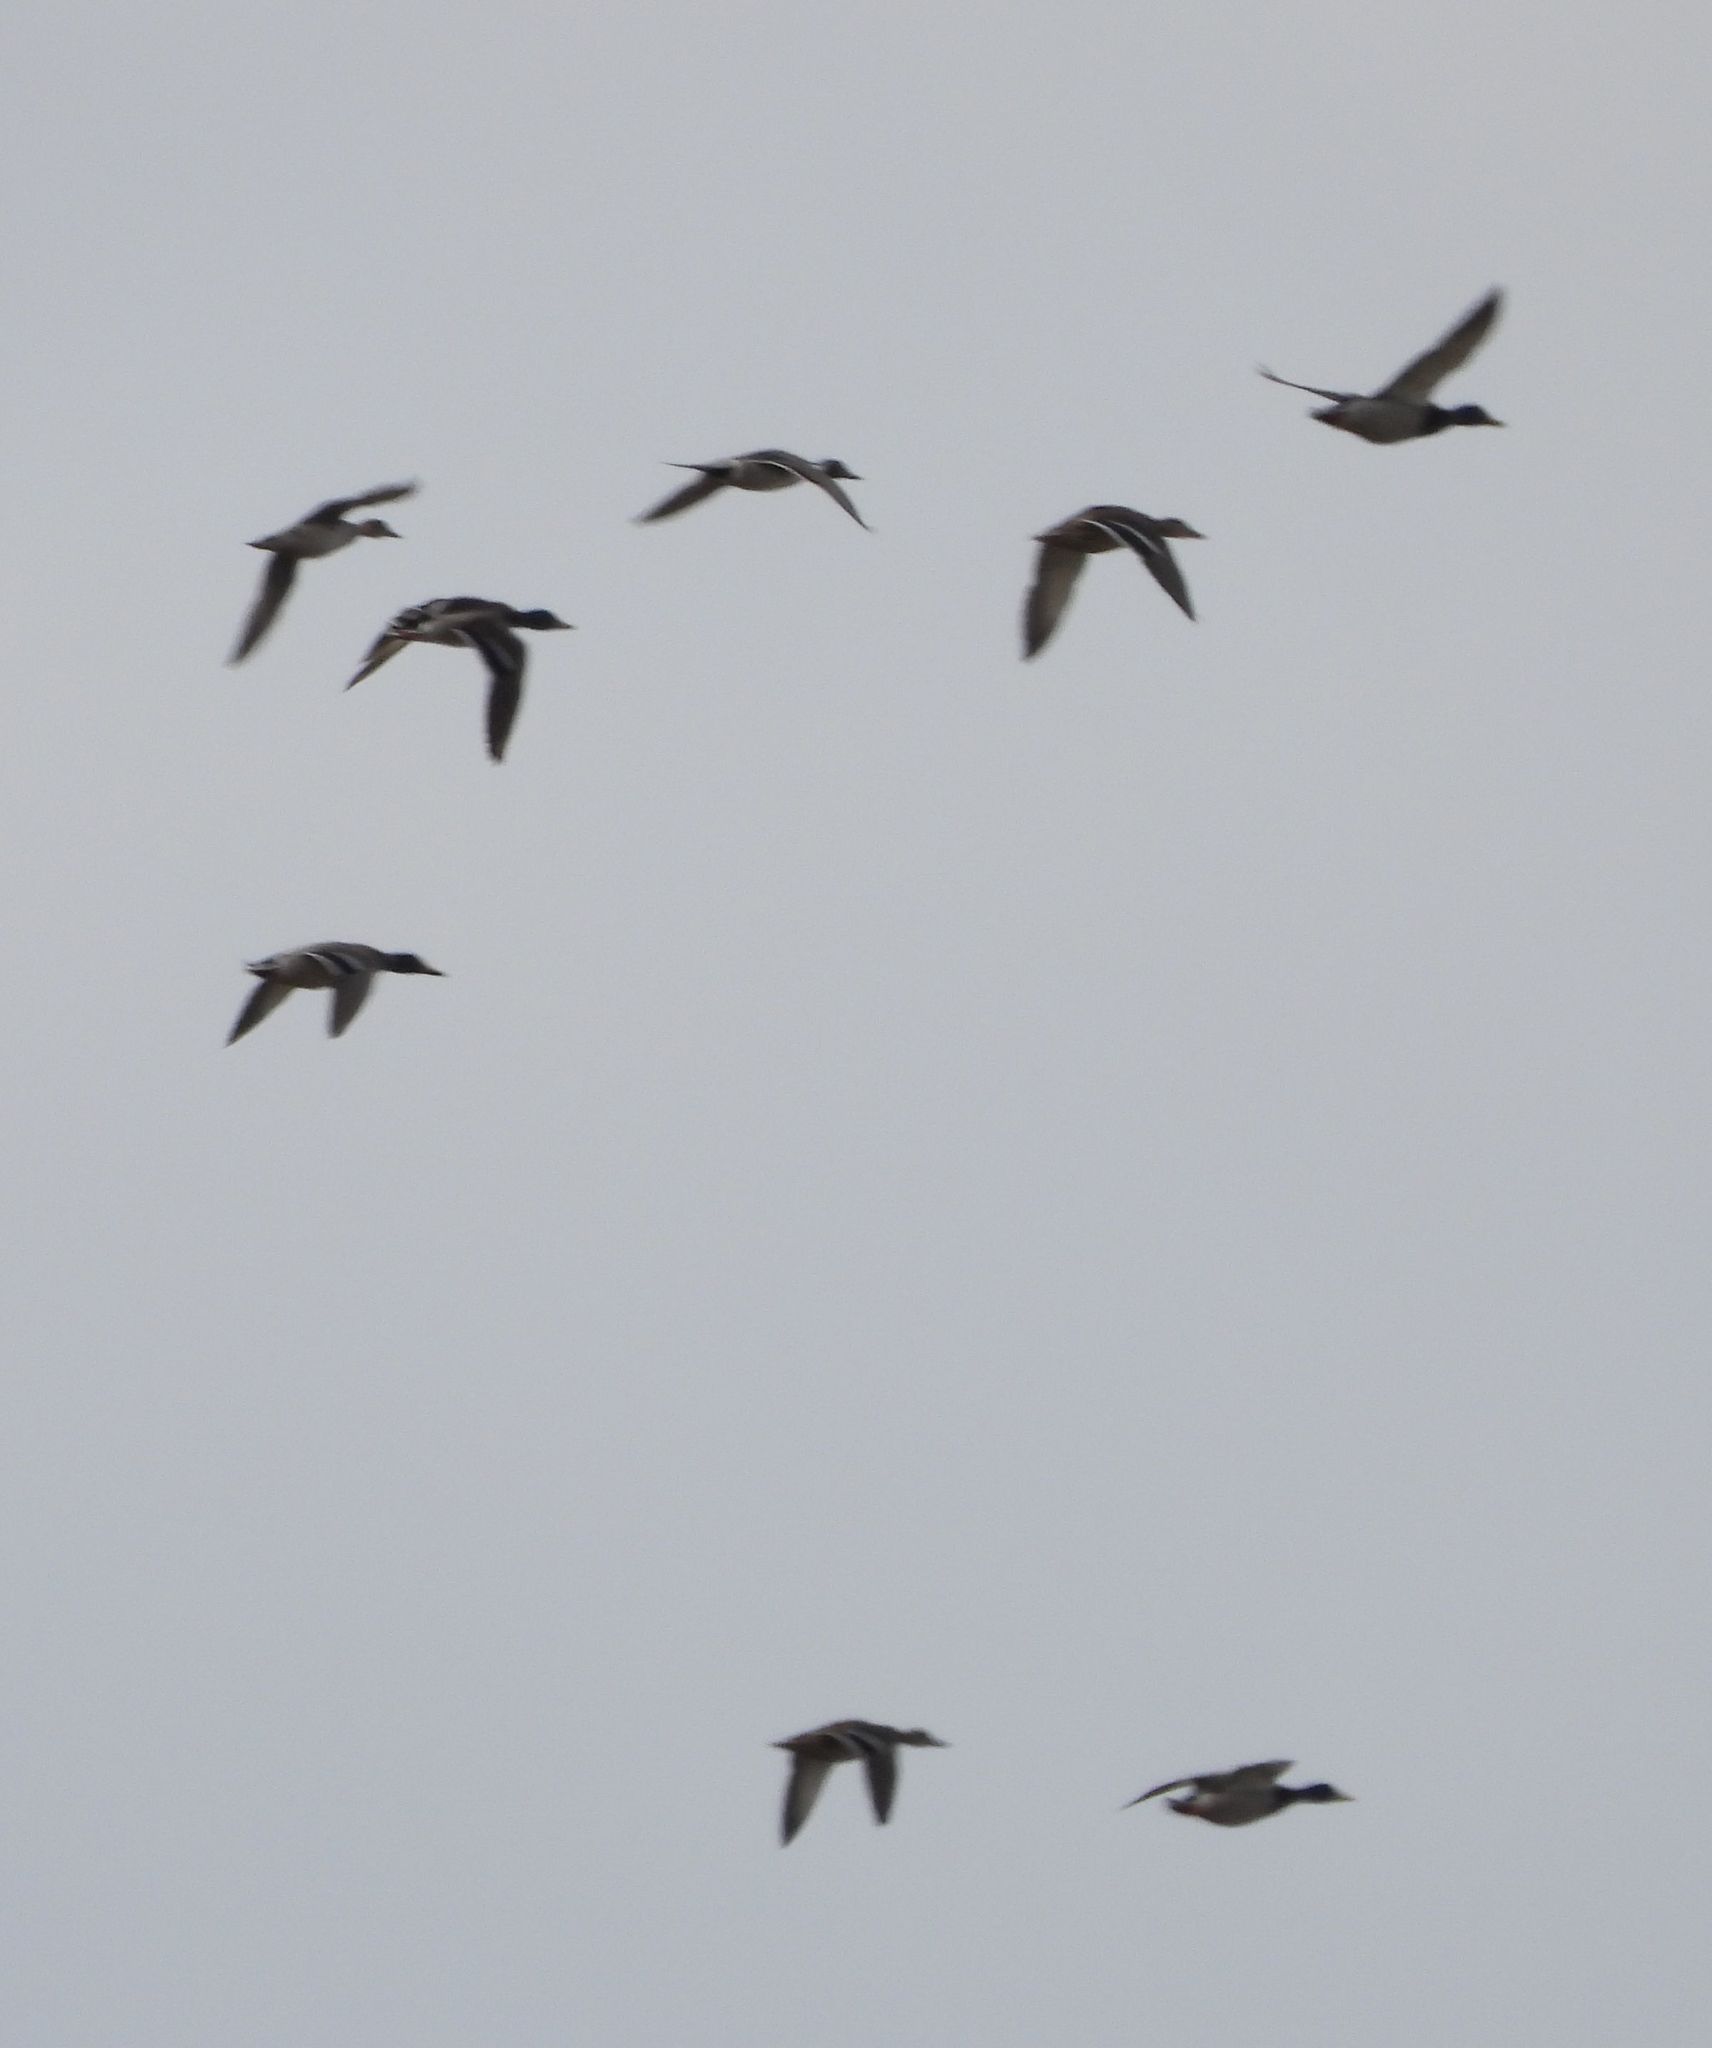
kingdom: Animalia
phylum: Chordata
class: Aves
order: Anseriformes
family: Anatidae
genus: Anas
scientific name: Anas acuta
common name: Northern pintail
